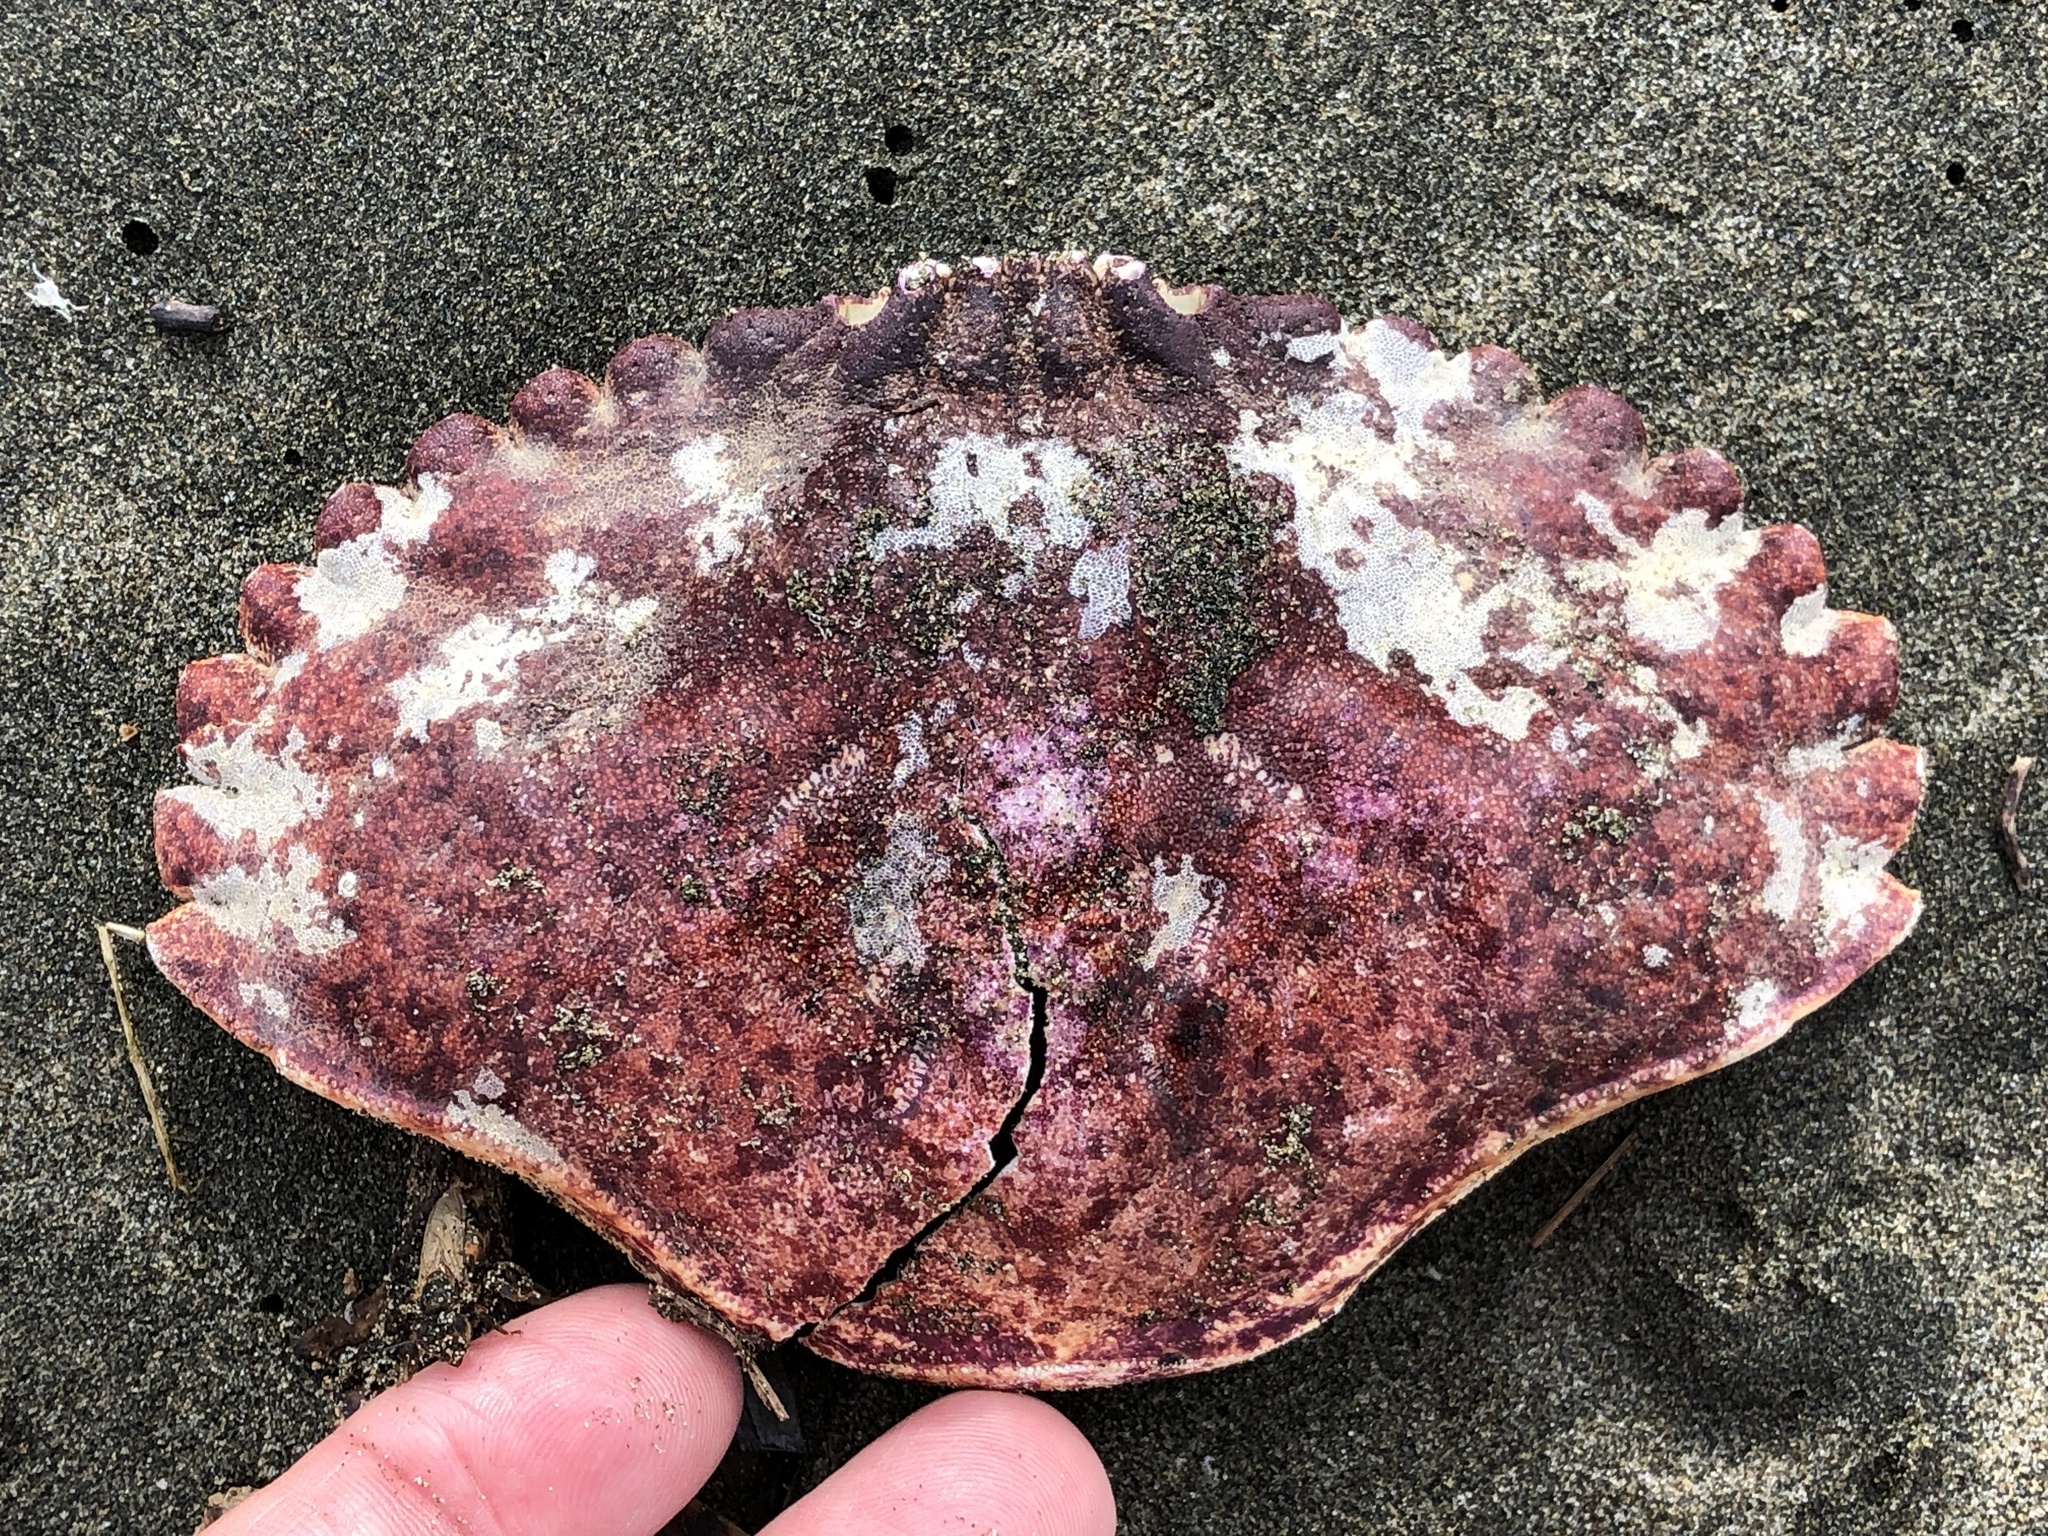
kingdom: Animalia
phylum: Arthropoda
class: Malacostraca
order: Decapoda
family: Cancridae
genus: Cancer
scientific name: Cancer productus
